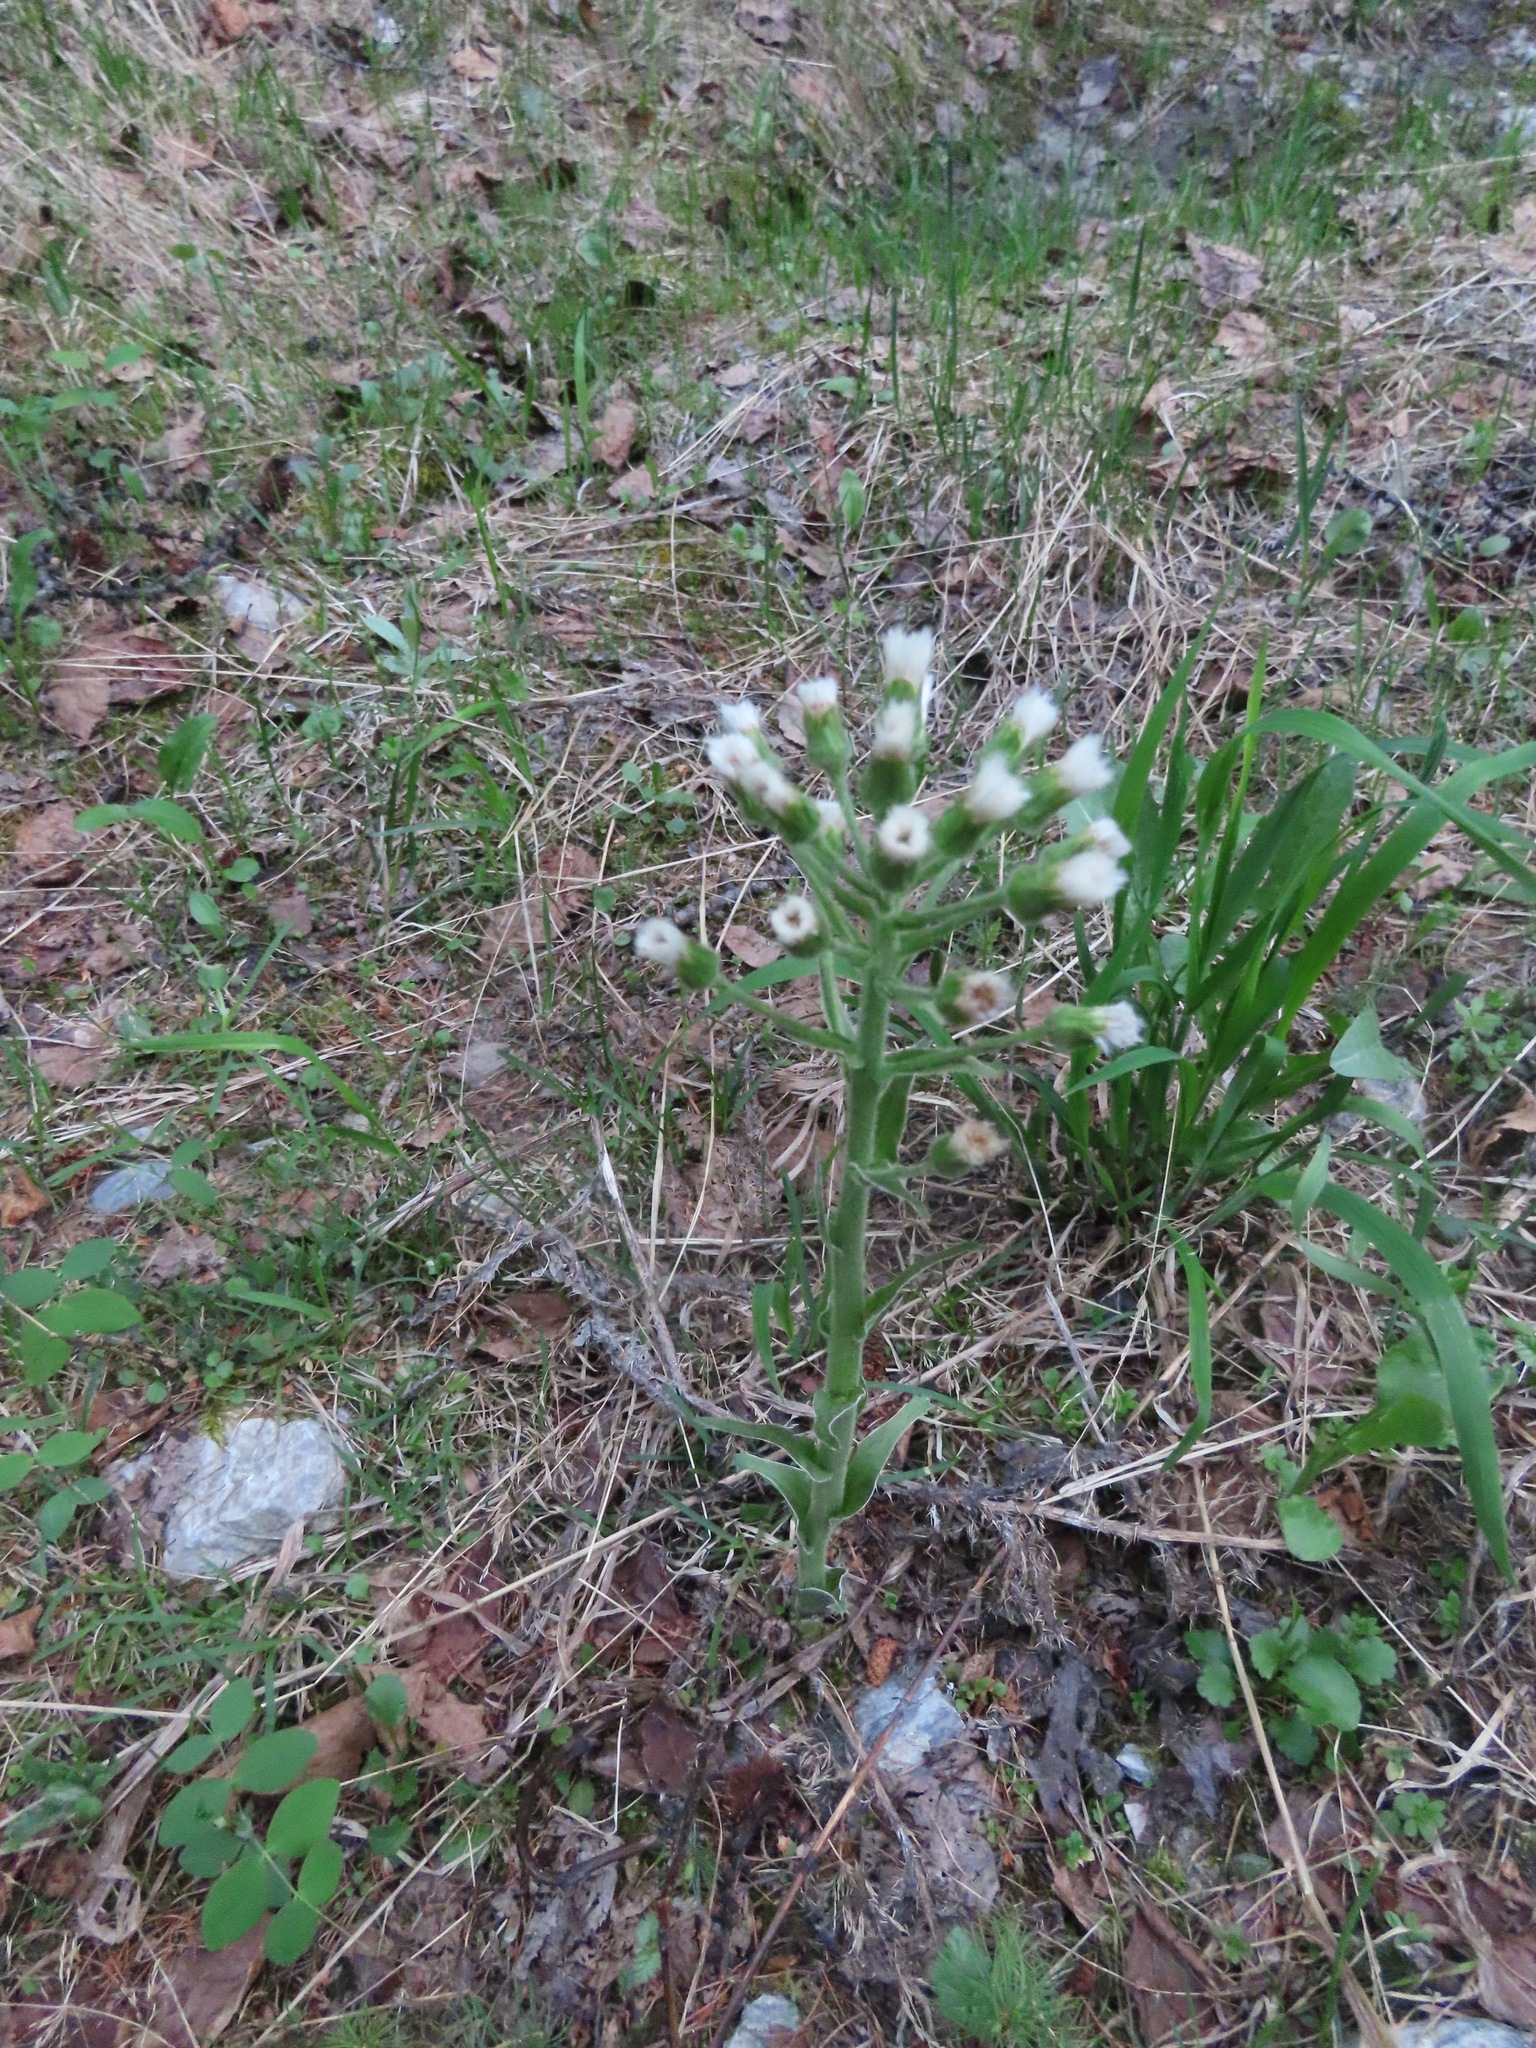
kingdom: Plantae
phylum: Tracheophyta
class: Magnoliopsida
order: Asterales
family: Asteraceae
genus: Petasites
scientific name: Petasites frigidus
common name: Arctic butterbur
